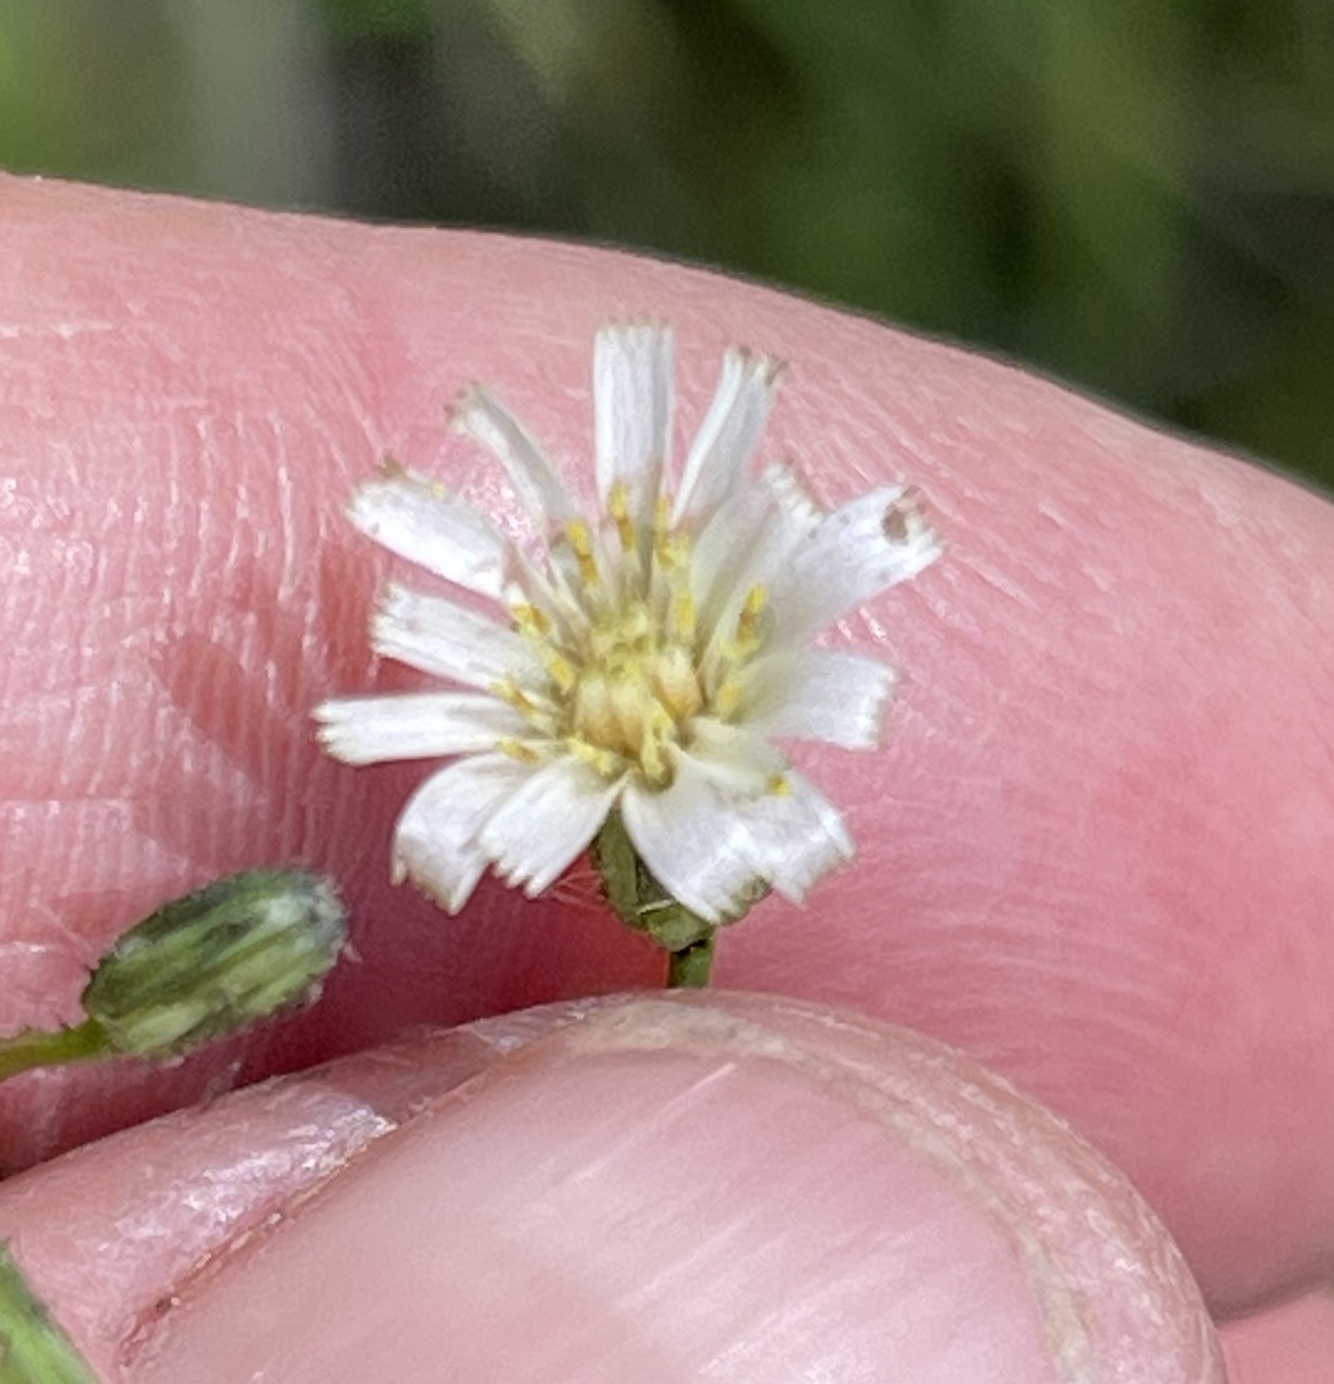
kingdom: Plantae
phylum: Tracheophyta
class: Magnoliopsida
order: Asterales
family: Asteraceae
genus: Hieracium
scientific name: Hieracium albiflorum
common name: White hawkweed
